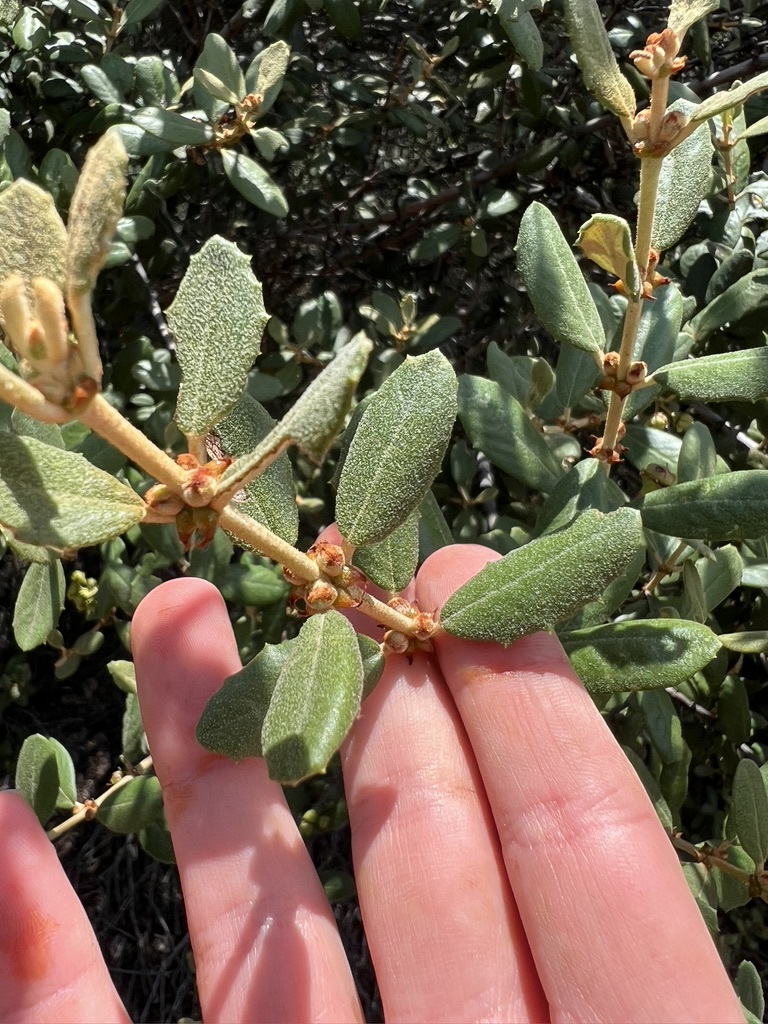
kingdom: Plantae
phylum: Tracheophyta
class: Magnoliopsida
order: Rosales
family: Rhamnaceae
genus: Ceanothus
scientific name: Ceanothus crassifolius
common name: Hoaryleaf ceanothus
